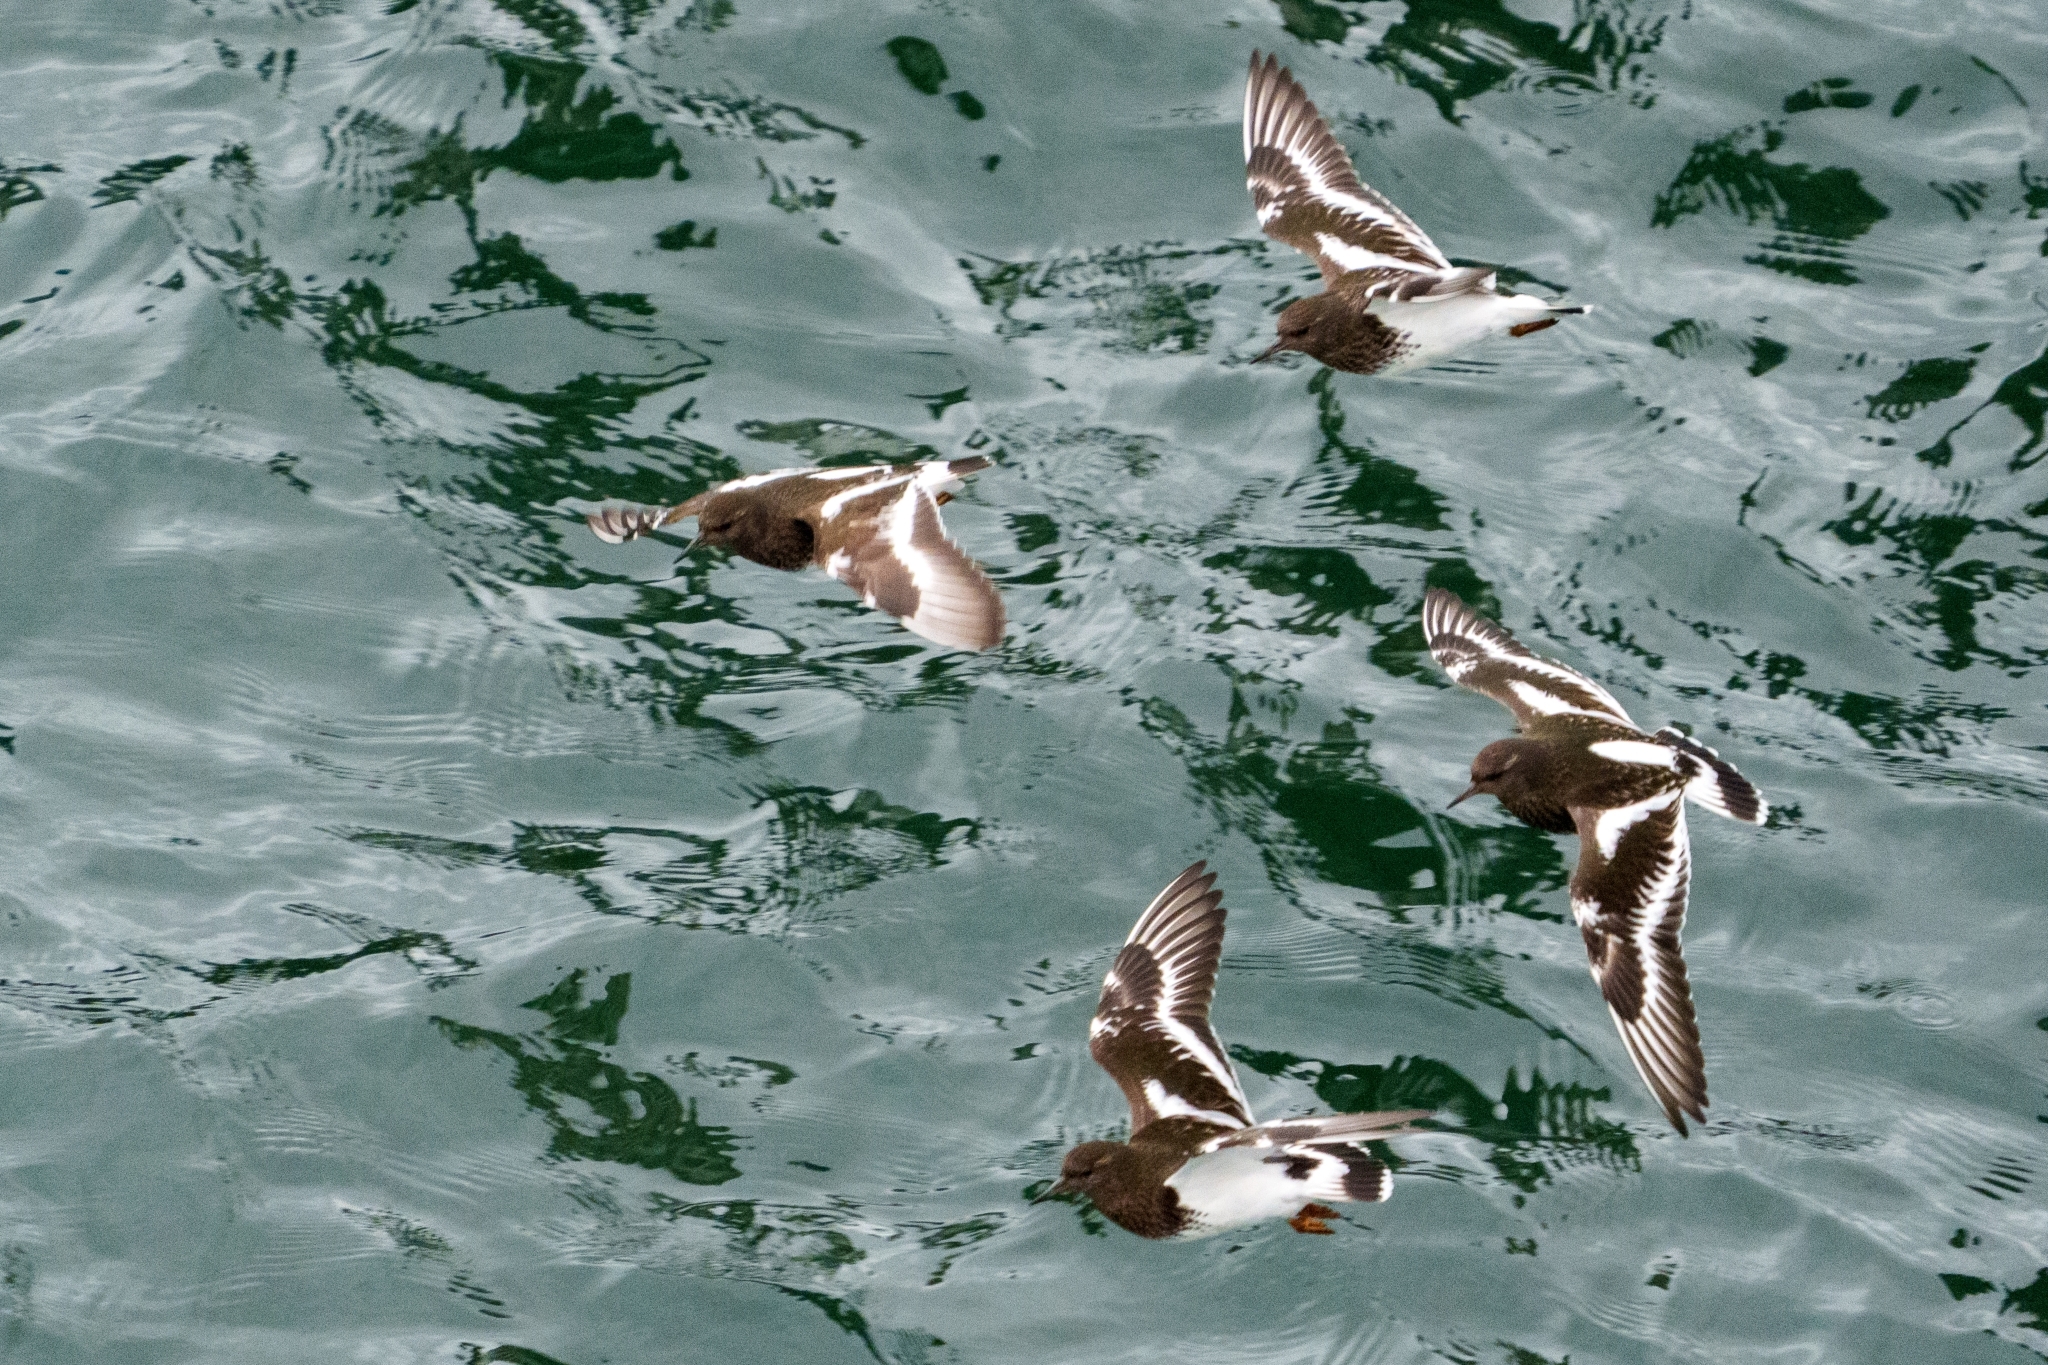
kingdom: Animalia
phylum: Chordata
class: Aves
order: Charadriiformes
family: Scolopacidae
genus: Arenaria
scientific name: Arenaria melanocephala
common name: Black turnstone
